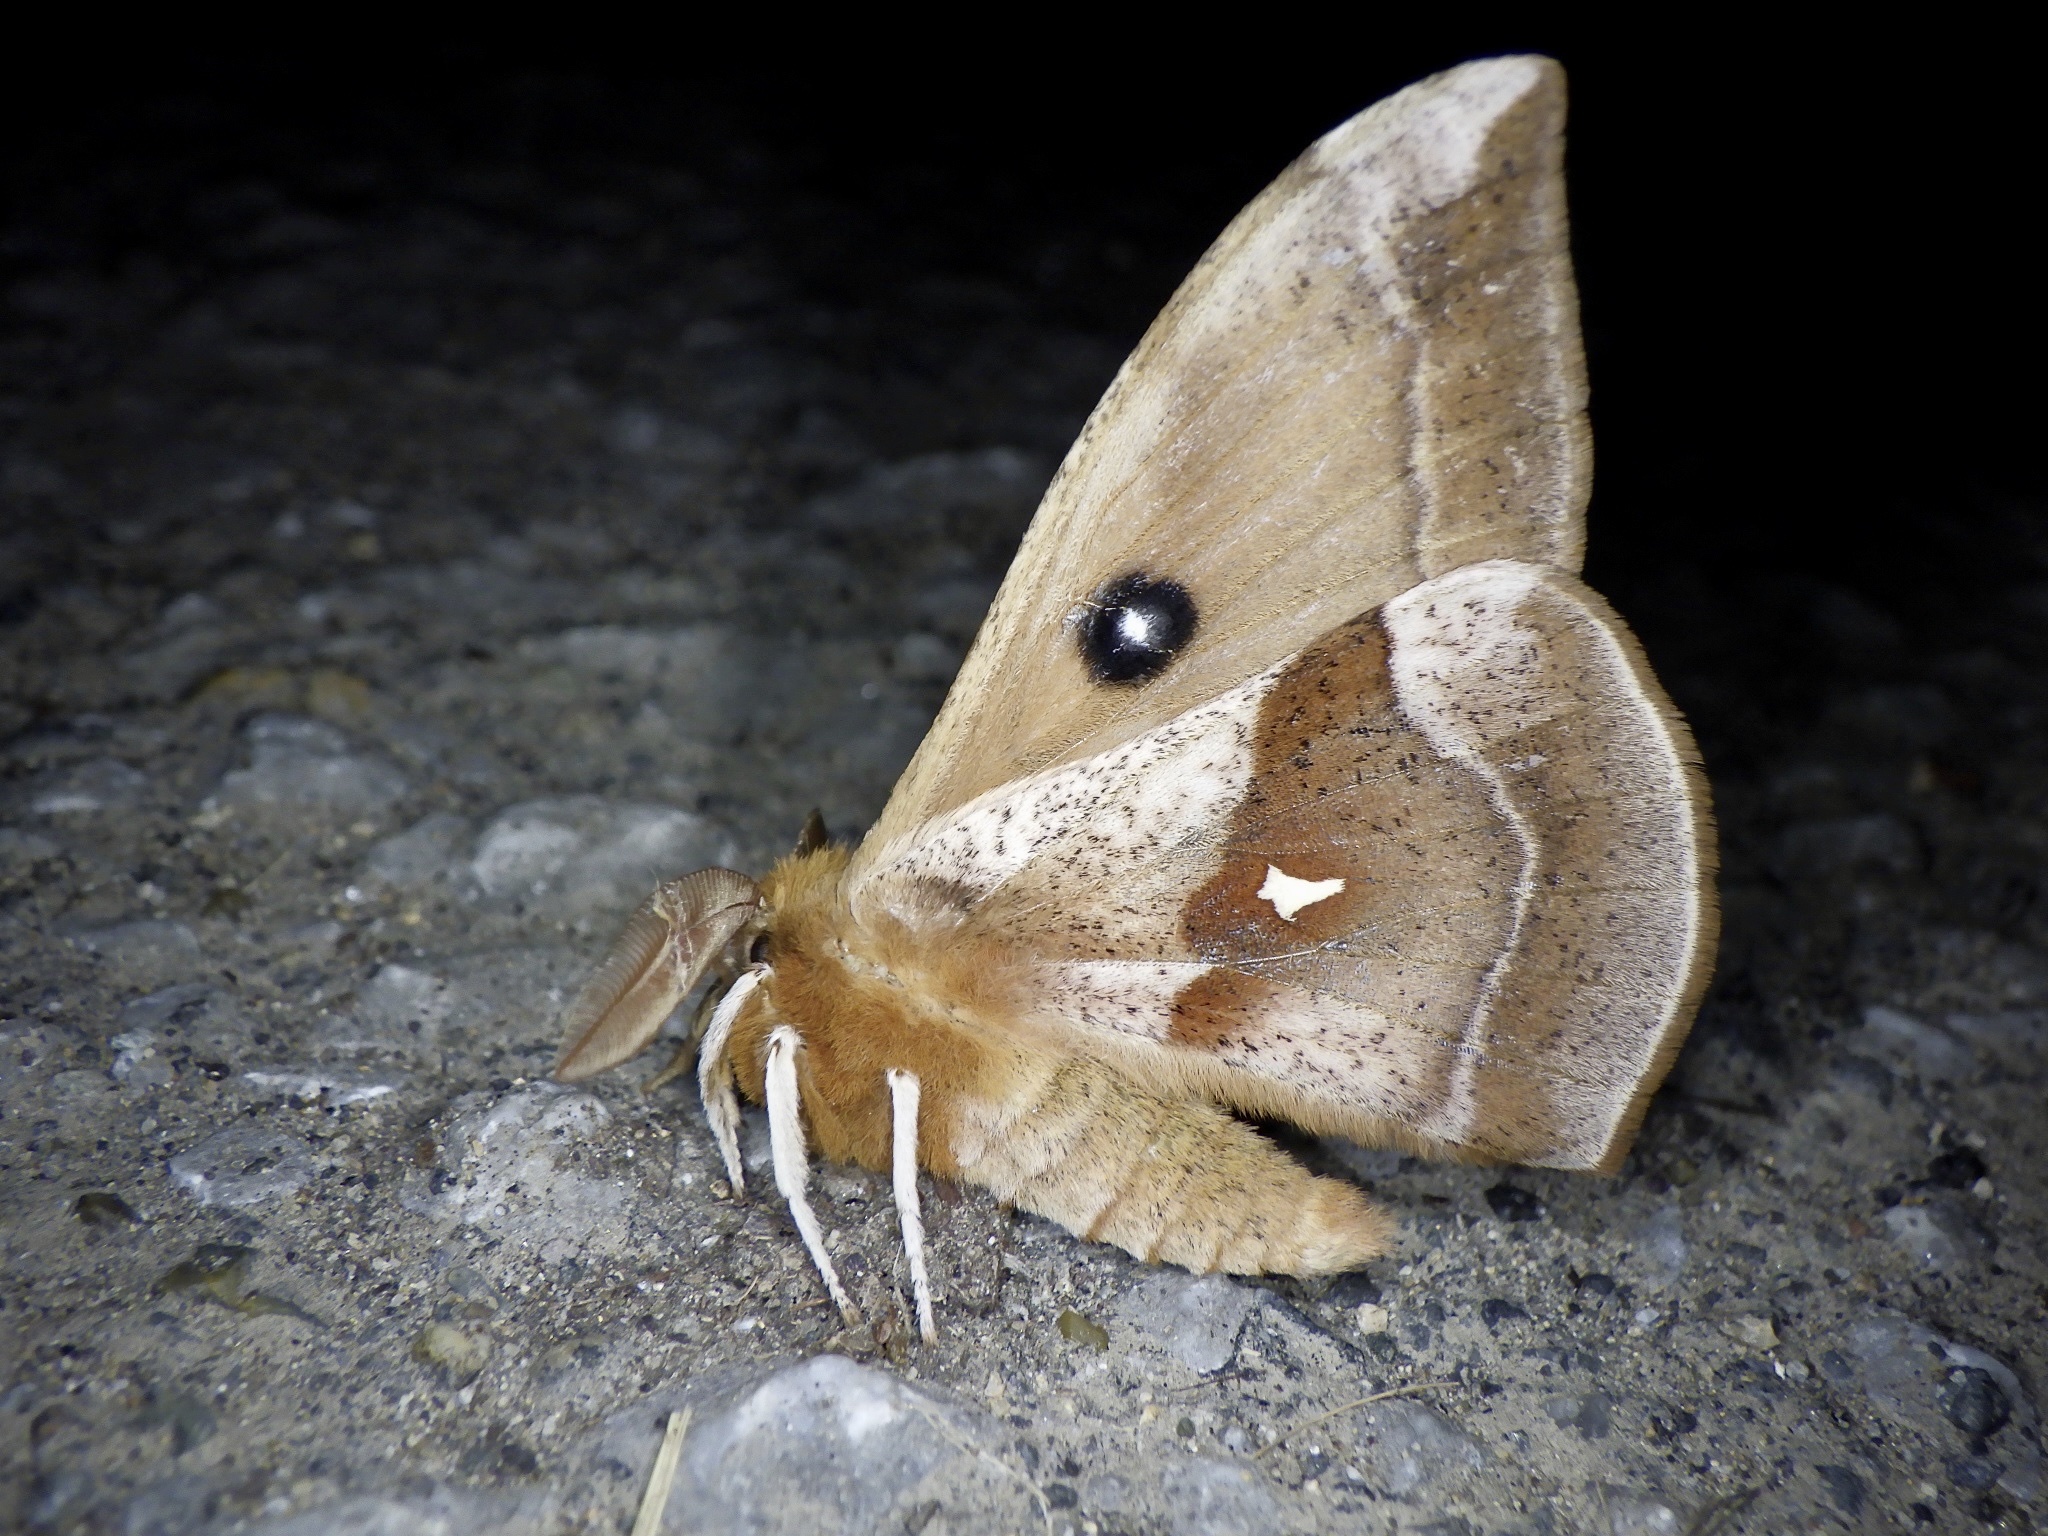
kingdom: Animalia
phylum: Arthropoda
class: Insecta
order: Lepidoptera
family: Saturniidae
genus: Aglia
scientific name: Aglia japonica
